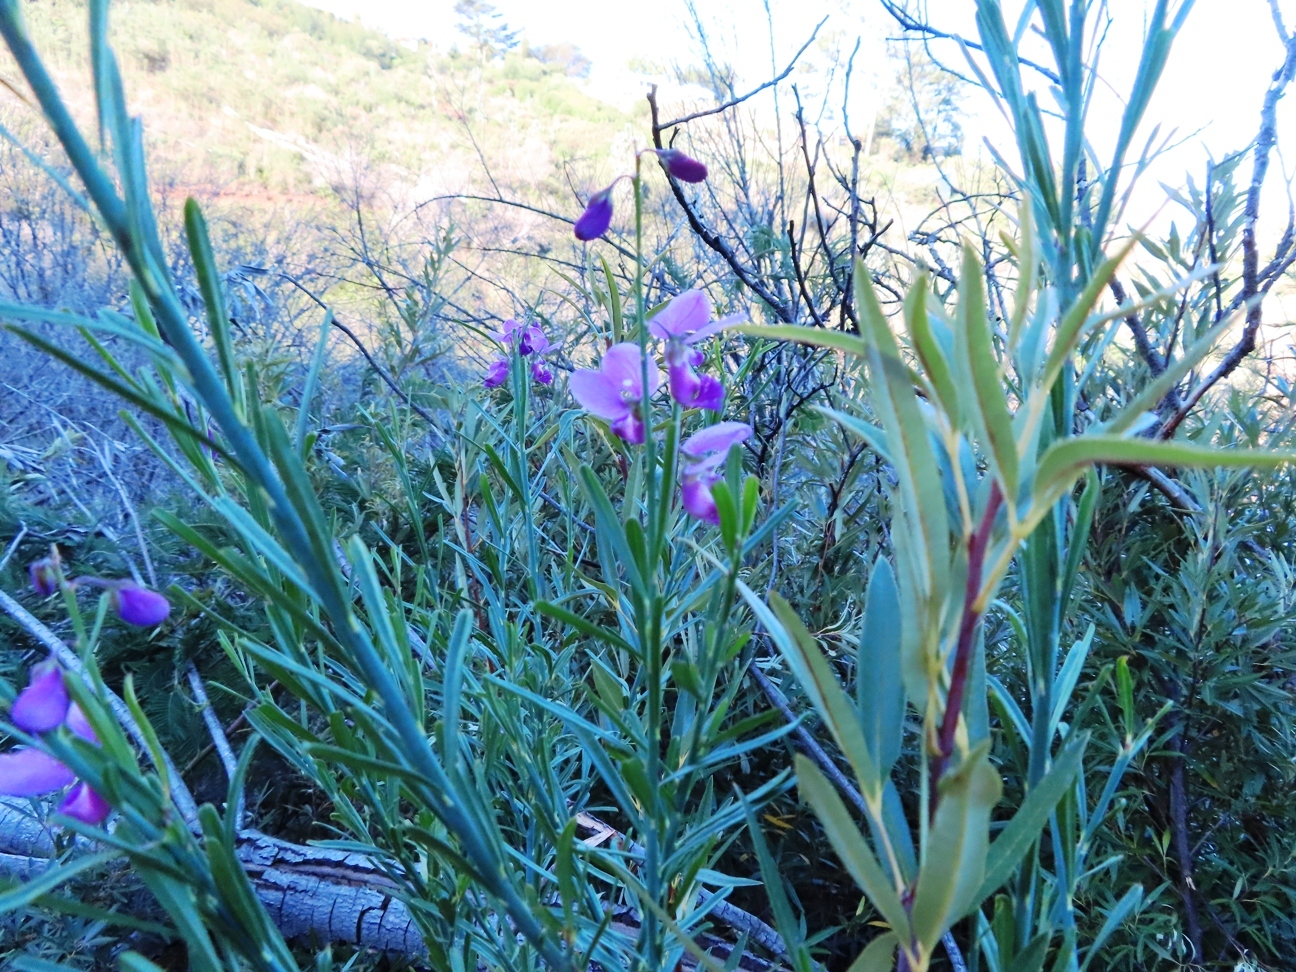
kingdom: Plantae
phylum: Tracheophyta
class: Magnoliopsida
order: Fabales
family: Polygalaceae
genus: Polygala
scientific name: Polygala virgata
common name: Milkwort
